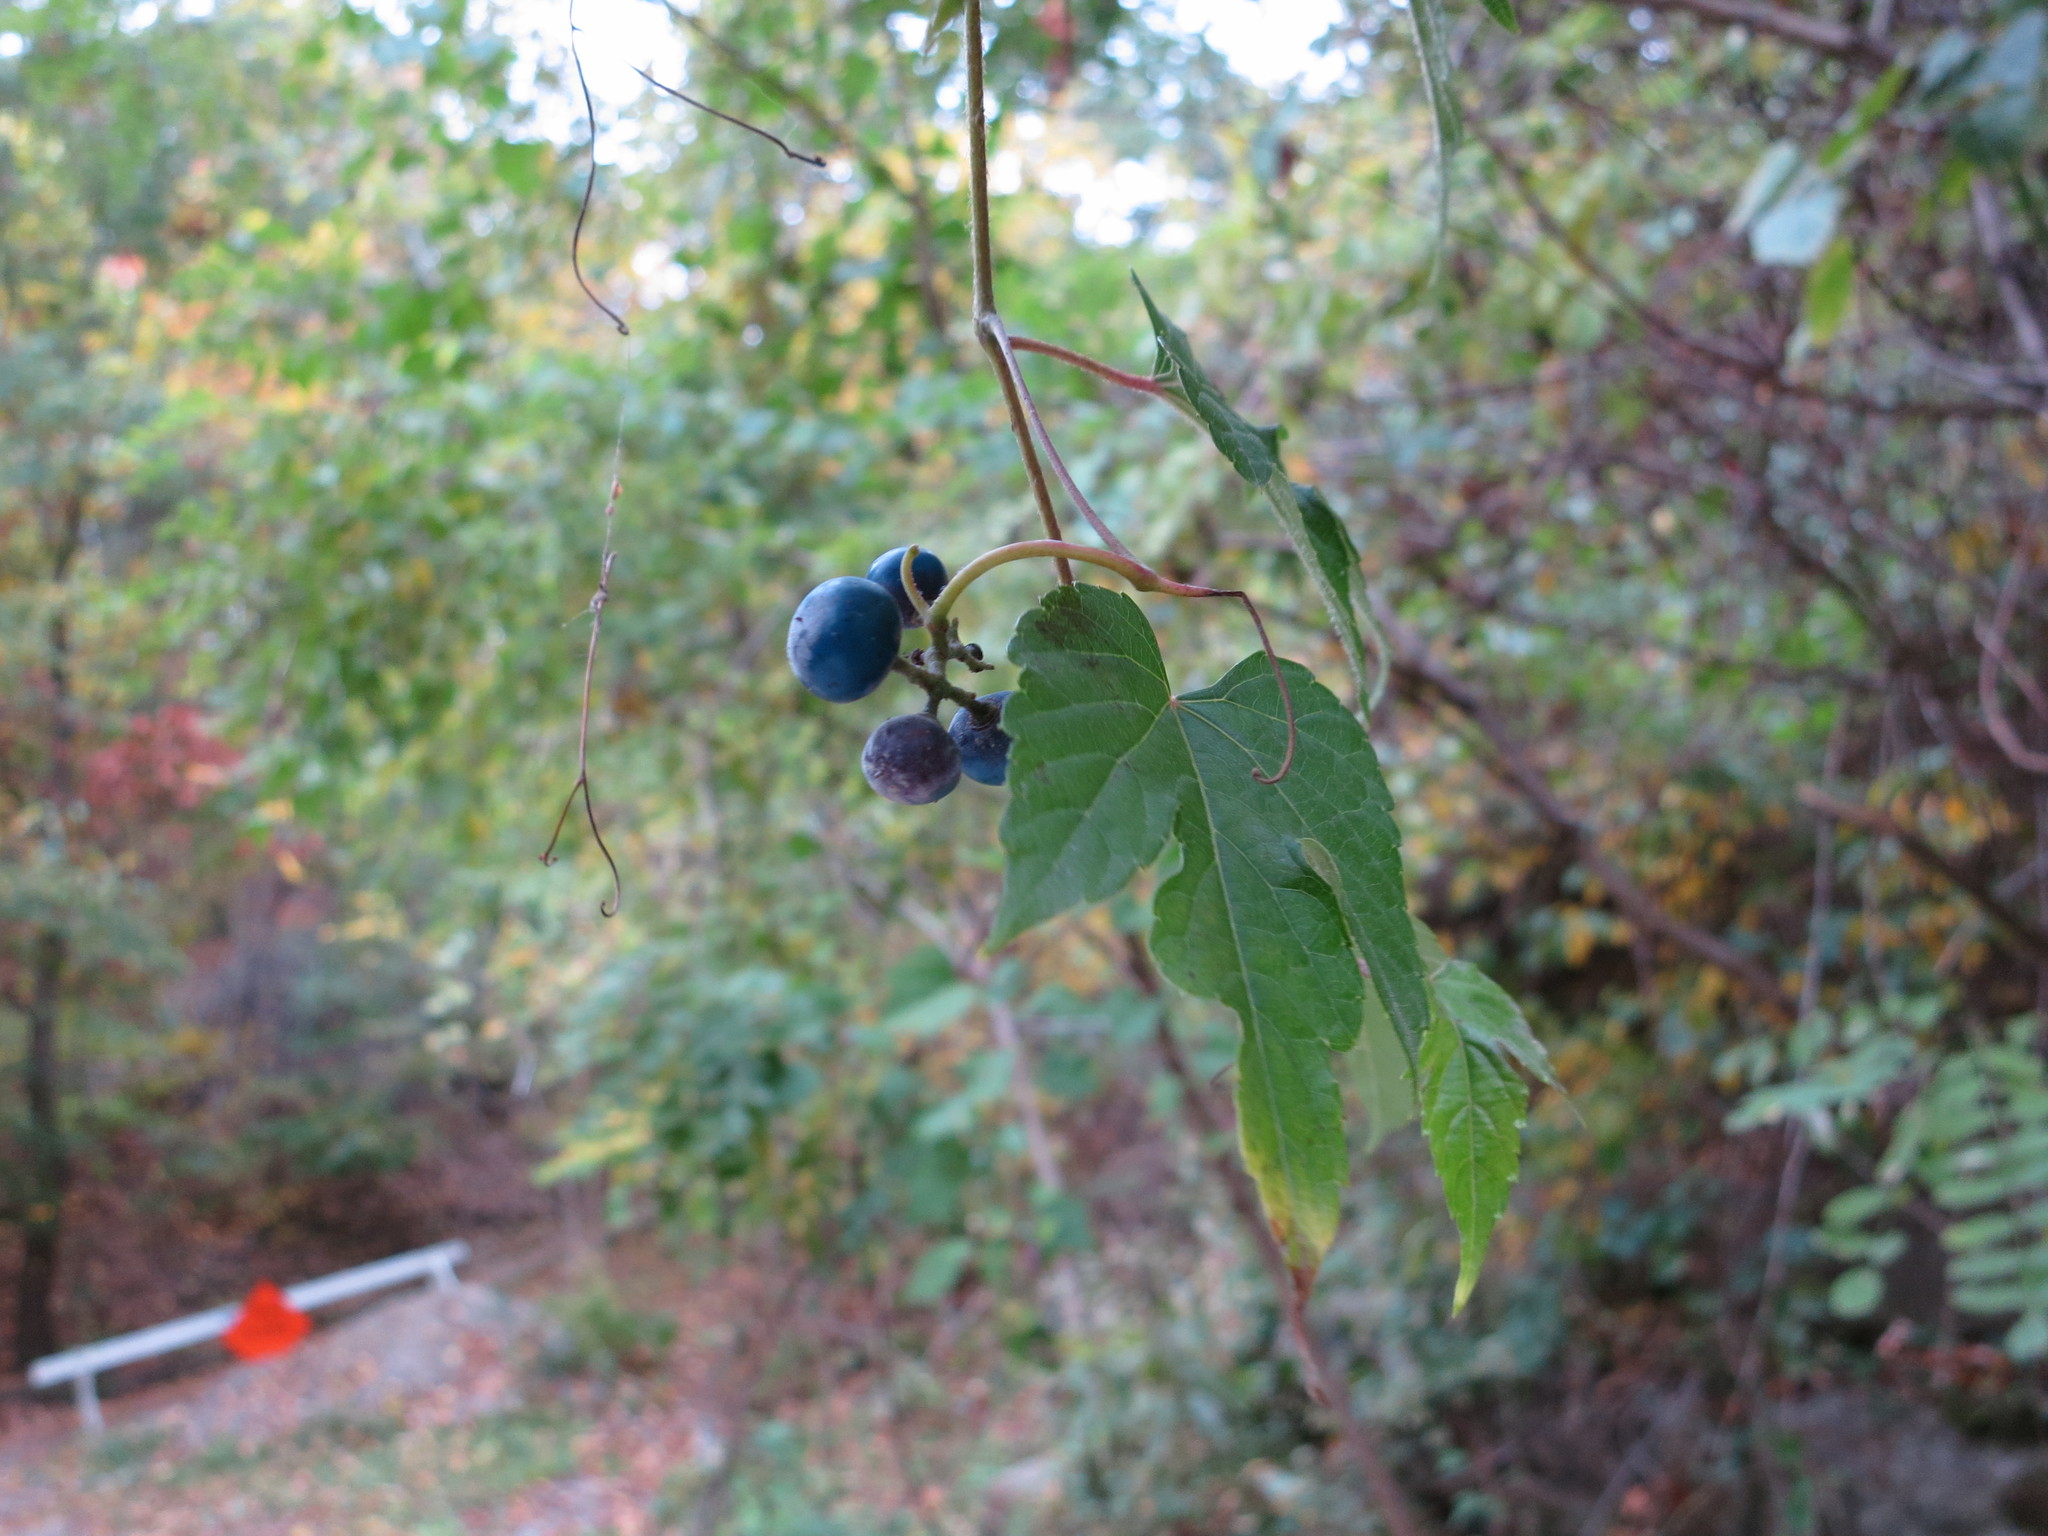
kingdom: Plantae
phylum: Tracheophyta
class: Magnoliopsida
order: Vitales
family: Vitaceae
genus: Ampelopsis
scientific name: Ampelopsis glandulosa
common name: Amur peppervine
